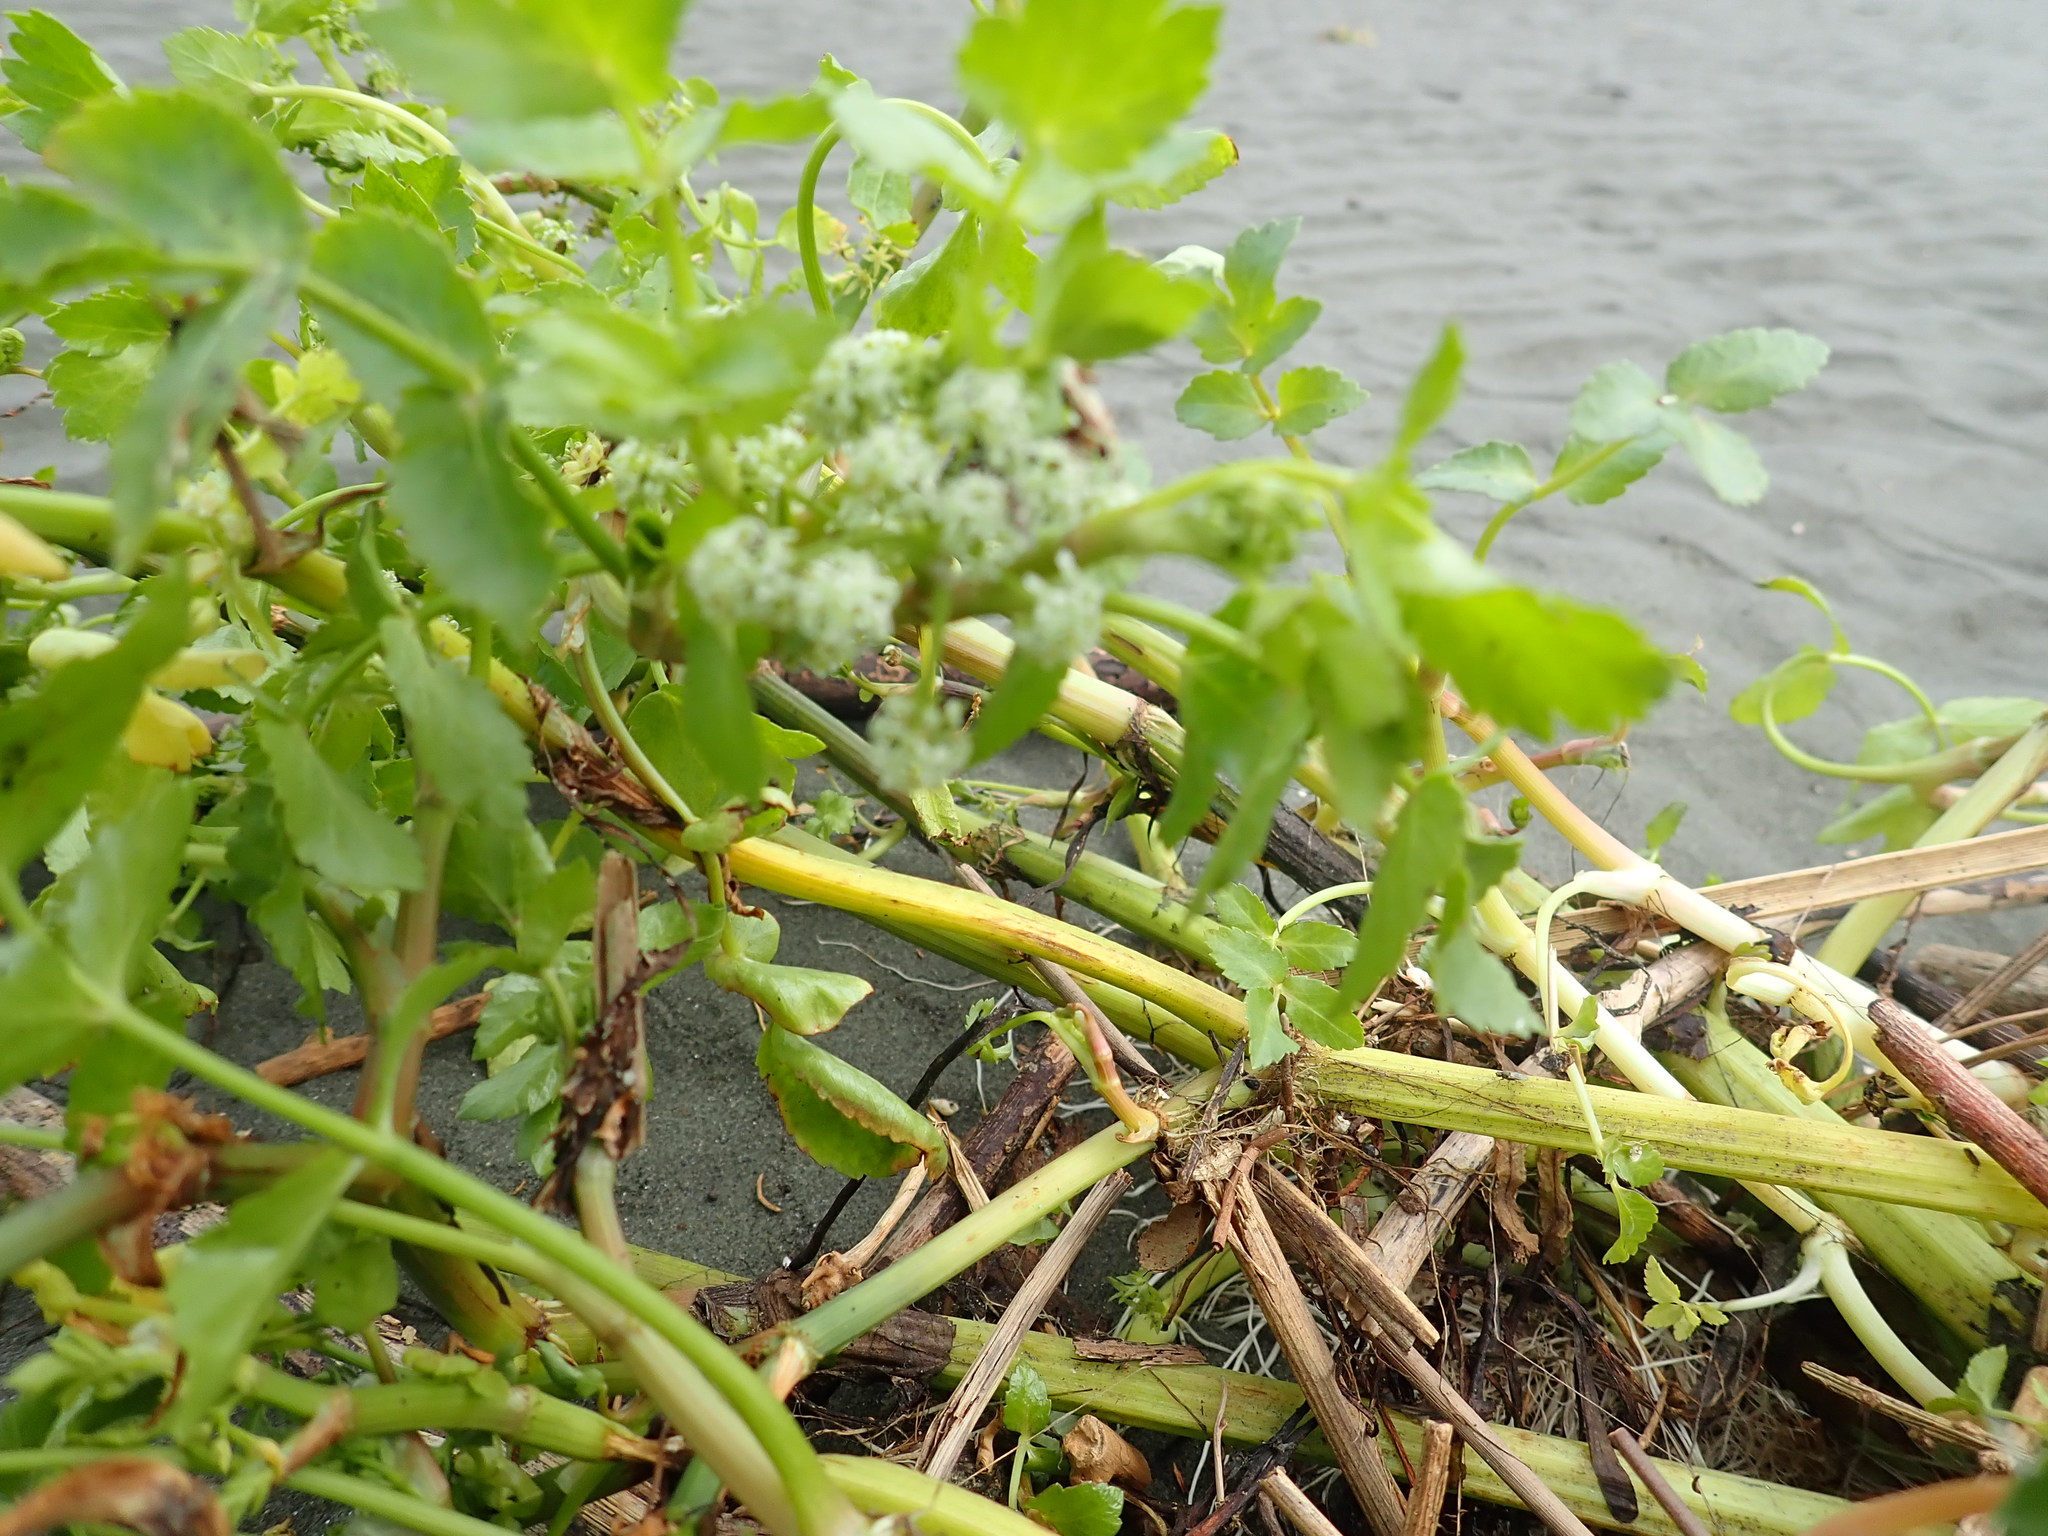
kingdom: Plantae
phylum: Tracheophyta
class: Magnoliopsida
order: Apiales
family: Apiaceae
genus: Helosciadium
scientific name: Helosciadium nodiflorum
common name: Fool's-watercress
